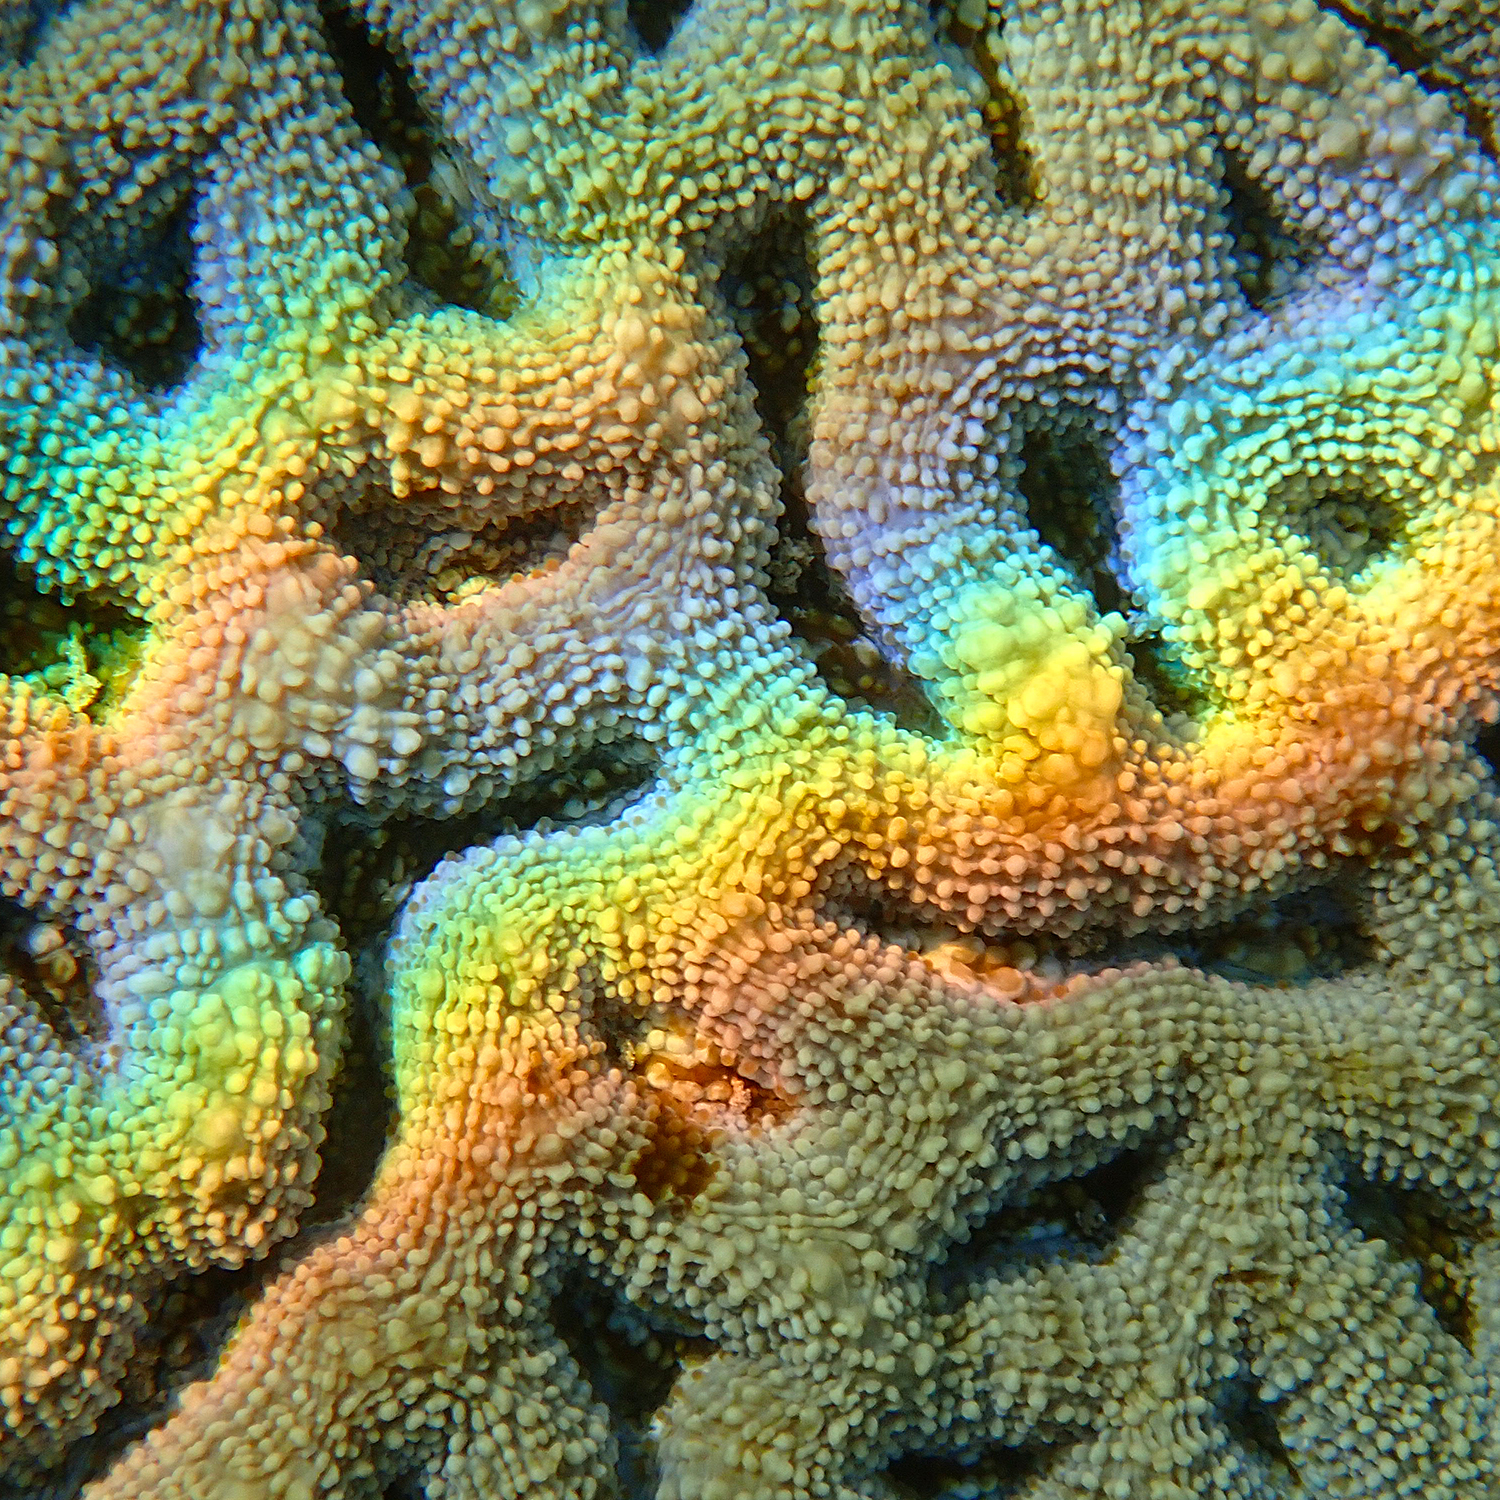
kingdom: Animalia
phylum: Cnidaria
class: Anthozoa
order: Scleractinia
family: Lobophylliidae
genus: Homophyllia
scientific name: Homophyllia bowerbanki
